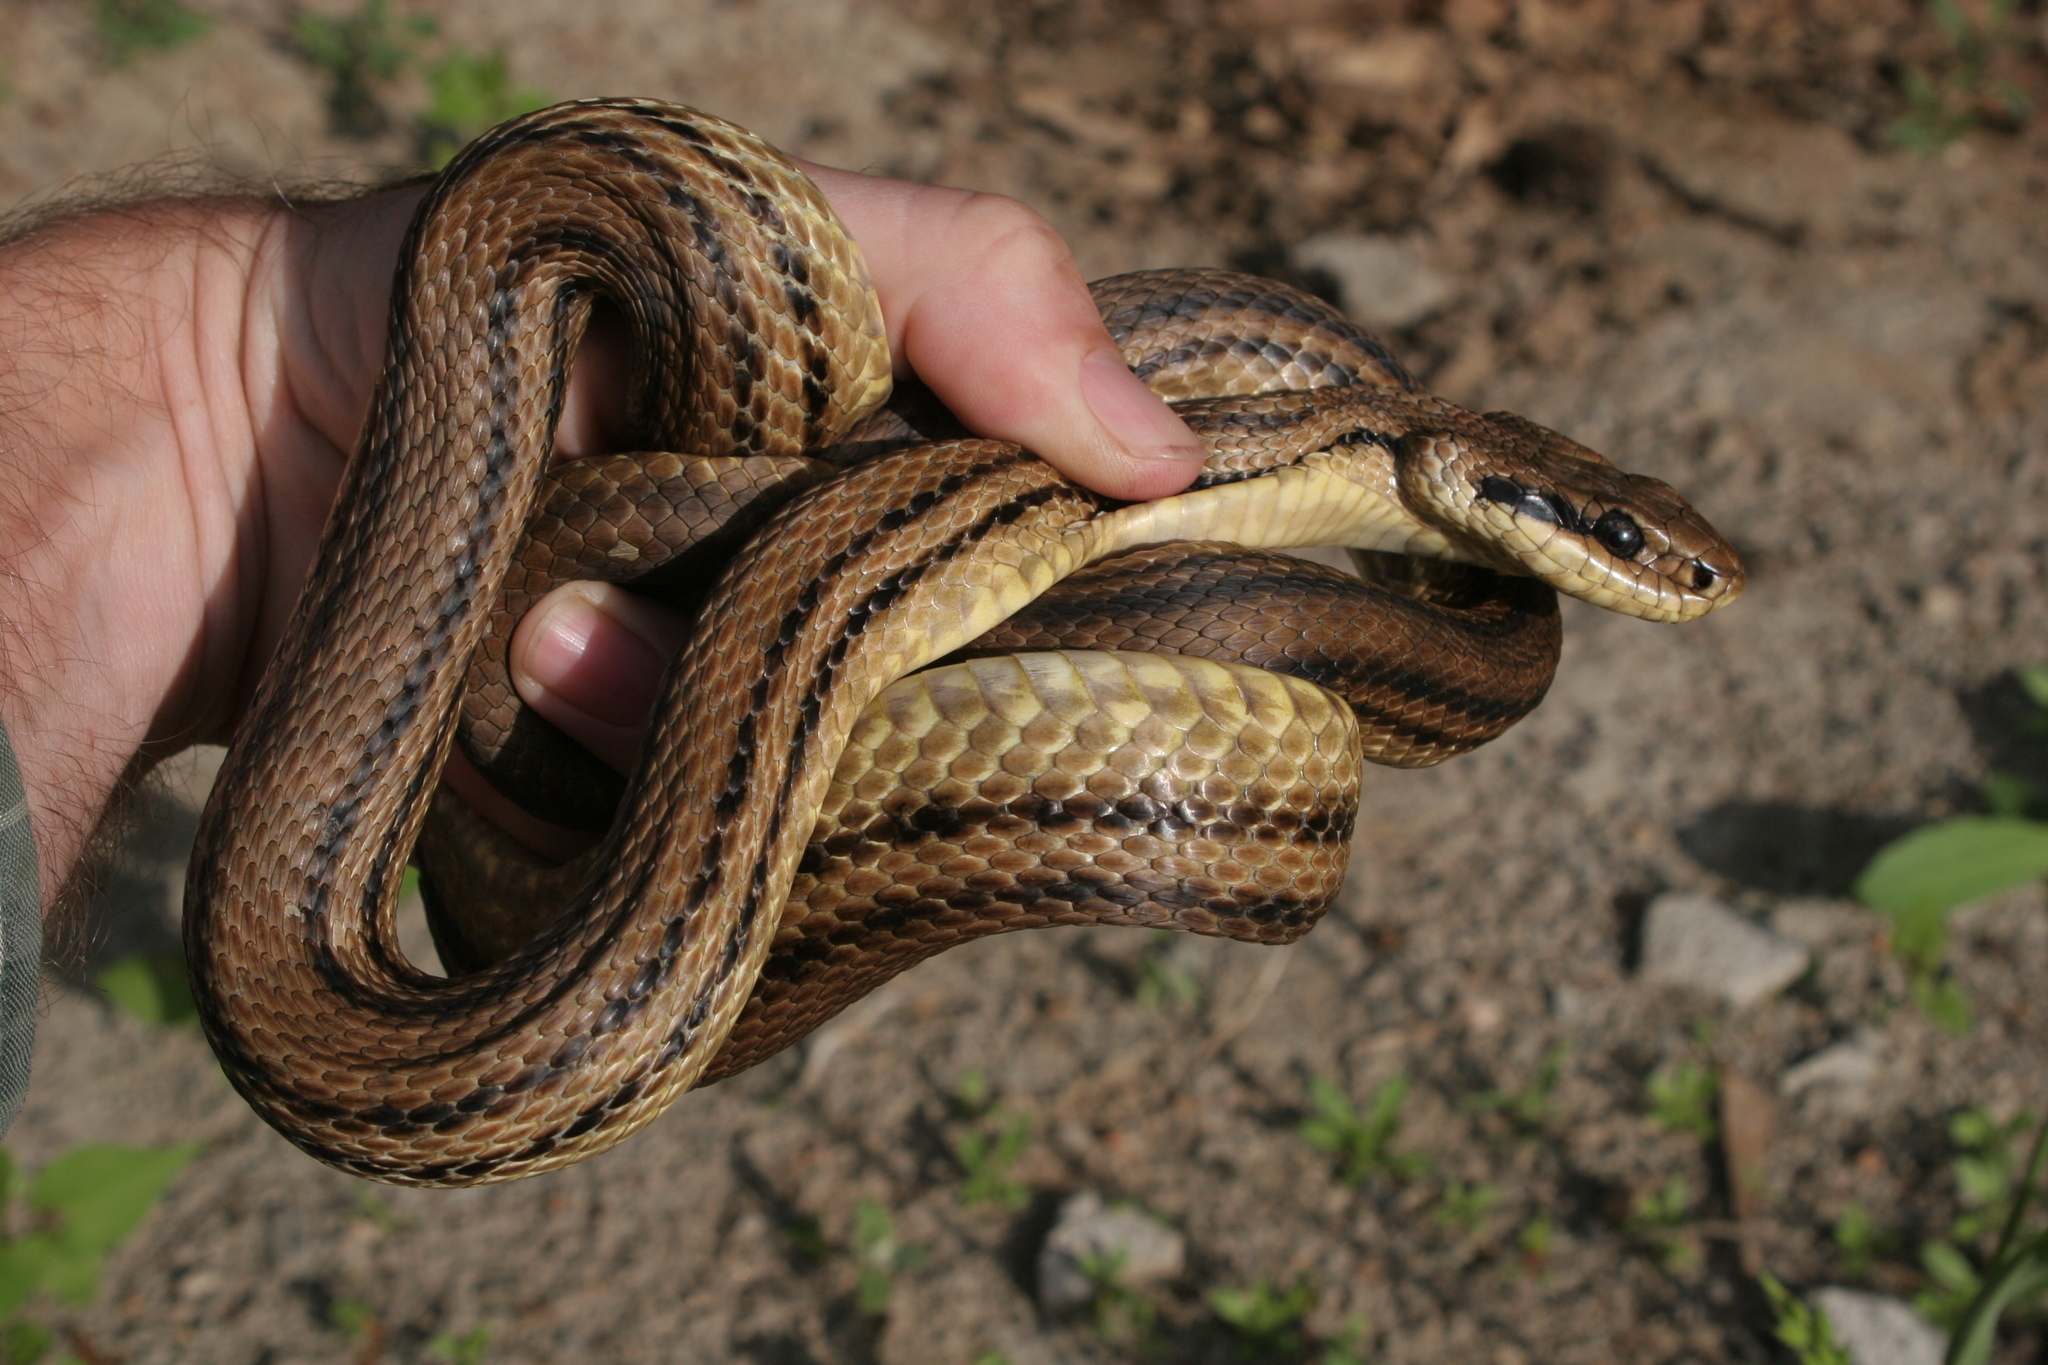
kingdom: Animalia
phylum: Chordata
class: Squamata
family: Colubridae
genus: Elaphe
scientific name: Elaphe quatuorlineata
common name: Four-lined snake
